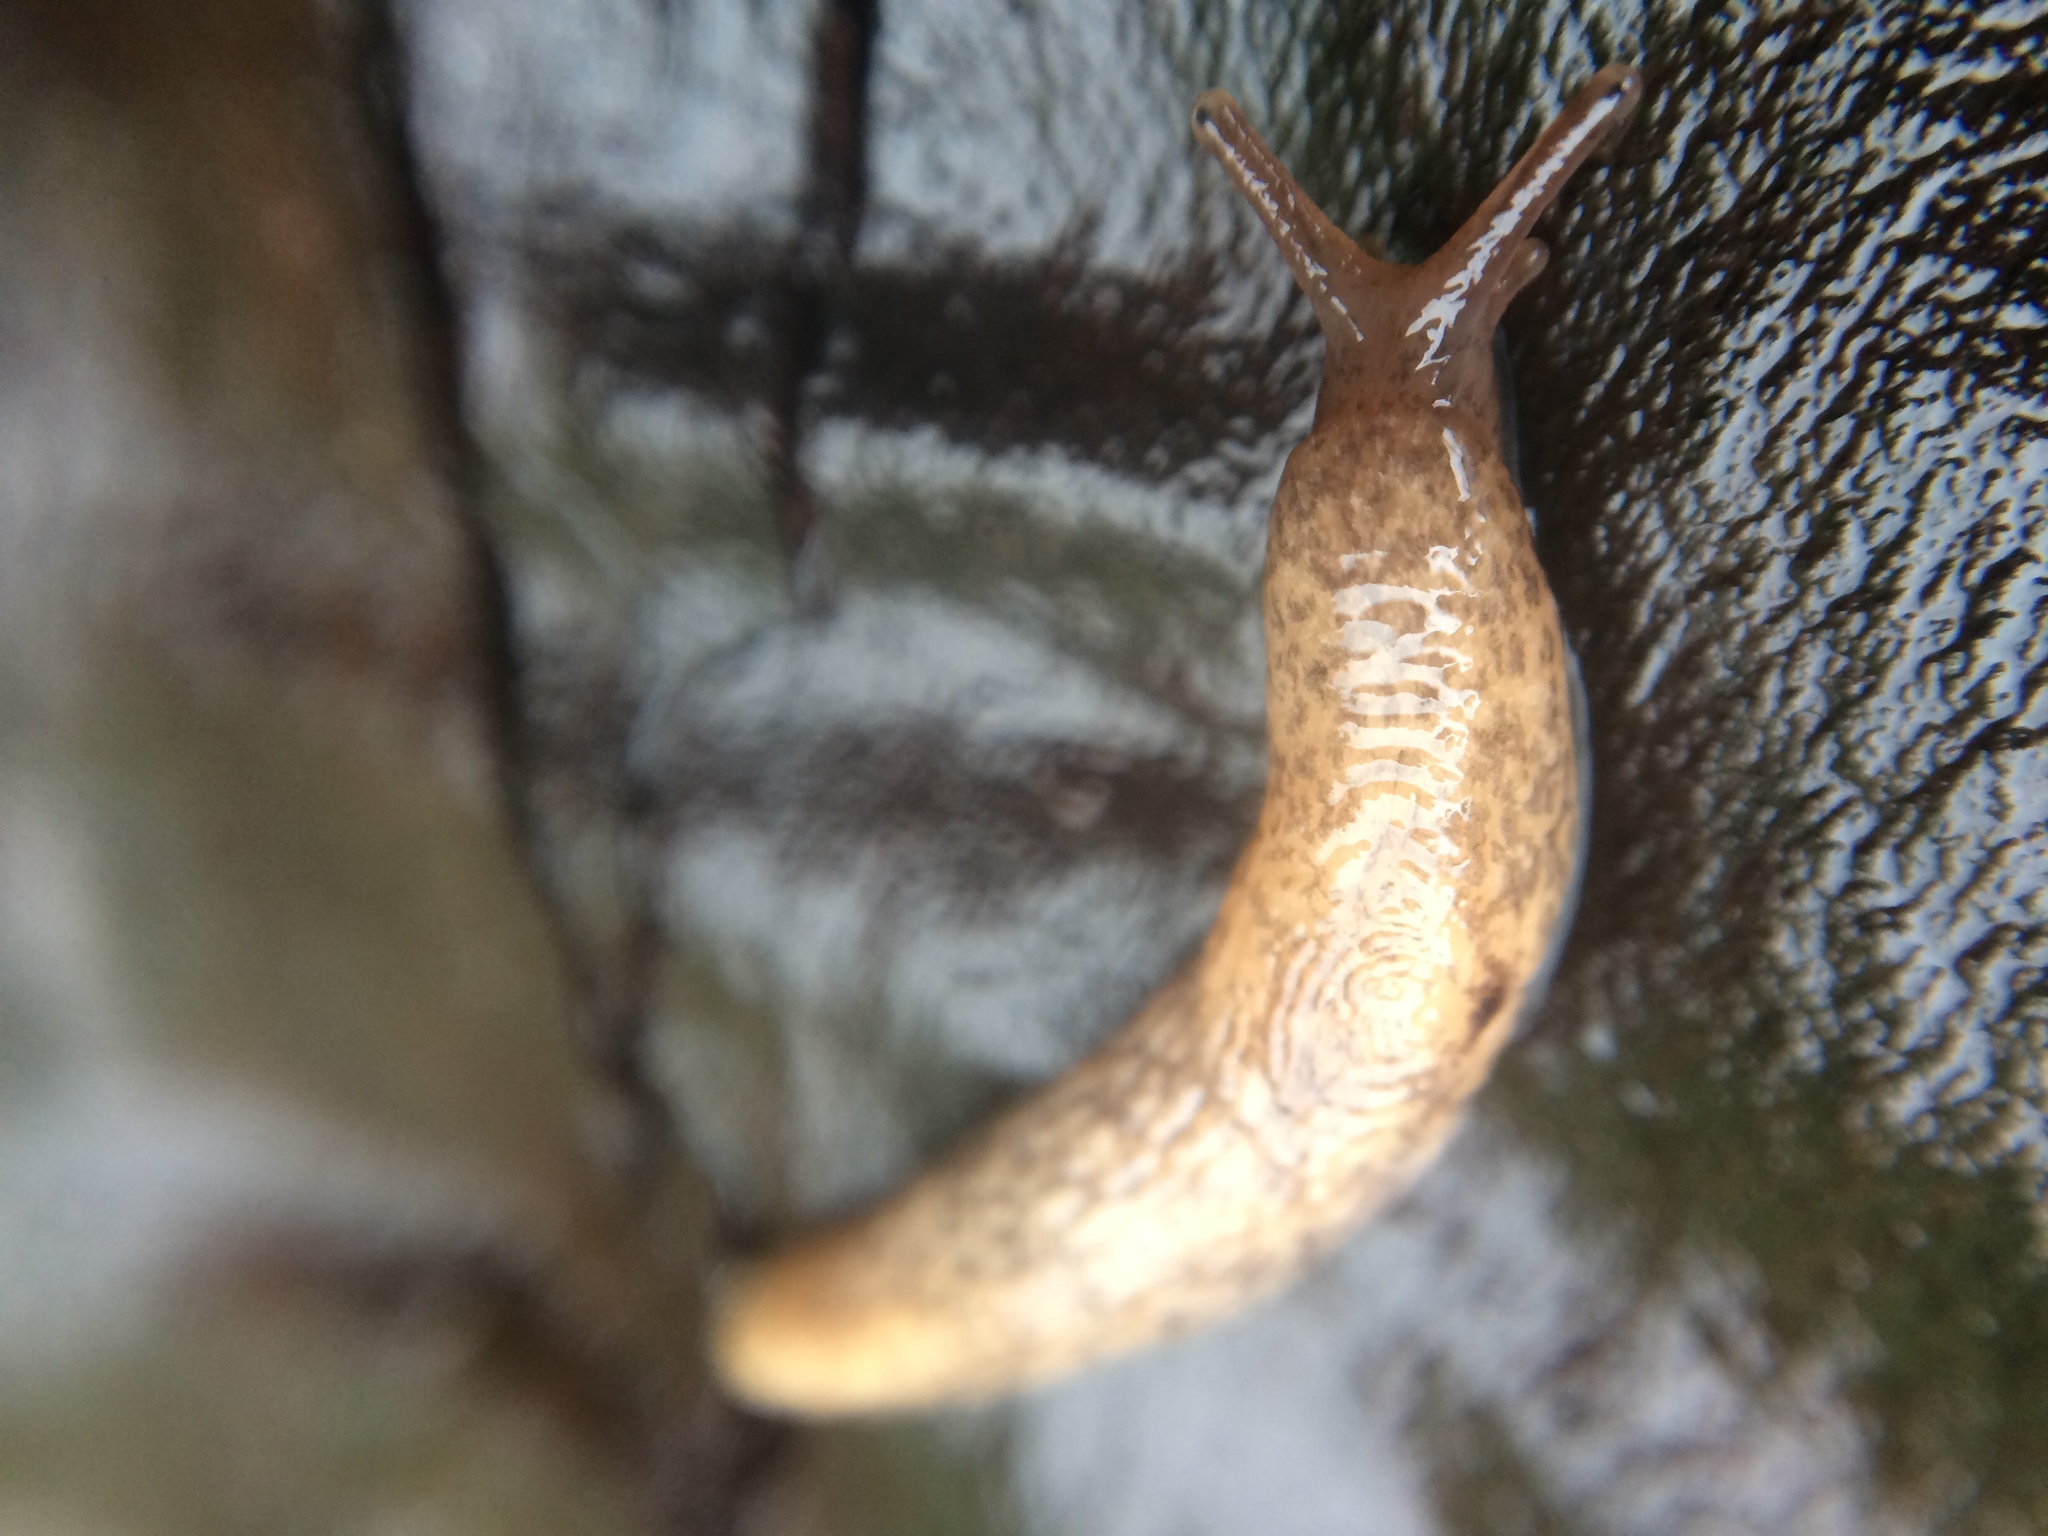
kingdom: Animalia
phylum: Mollusca
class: Gastropoda
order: Stylommatophora
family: Agriolimacidae
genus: Deroceras
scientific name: Deroceras reticulatum
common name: Gray field slug
